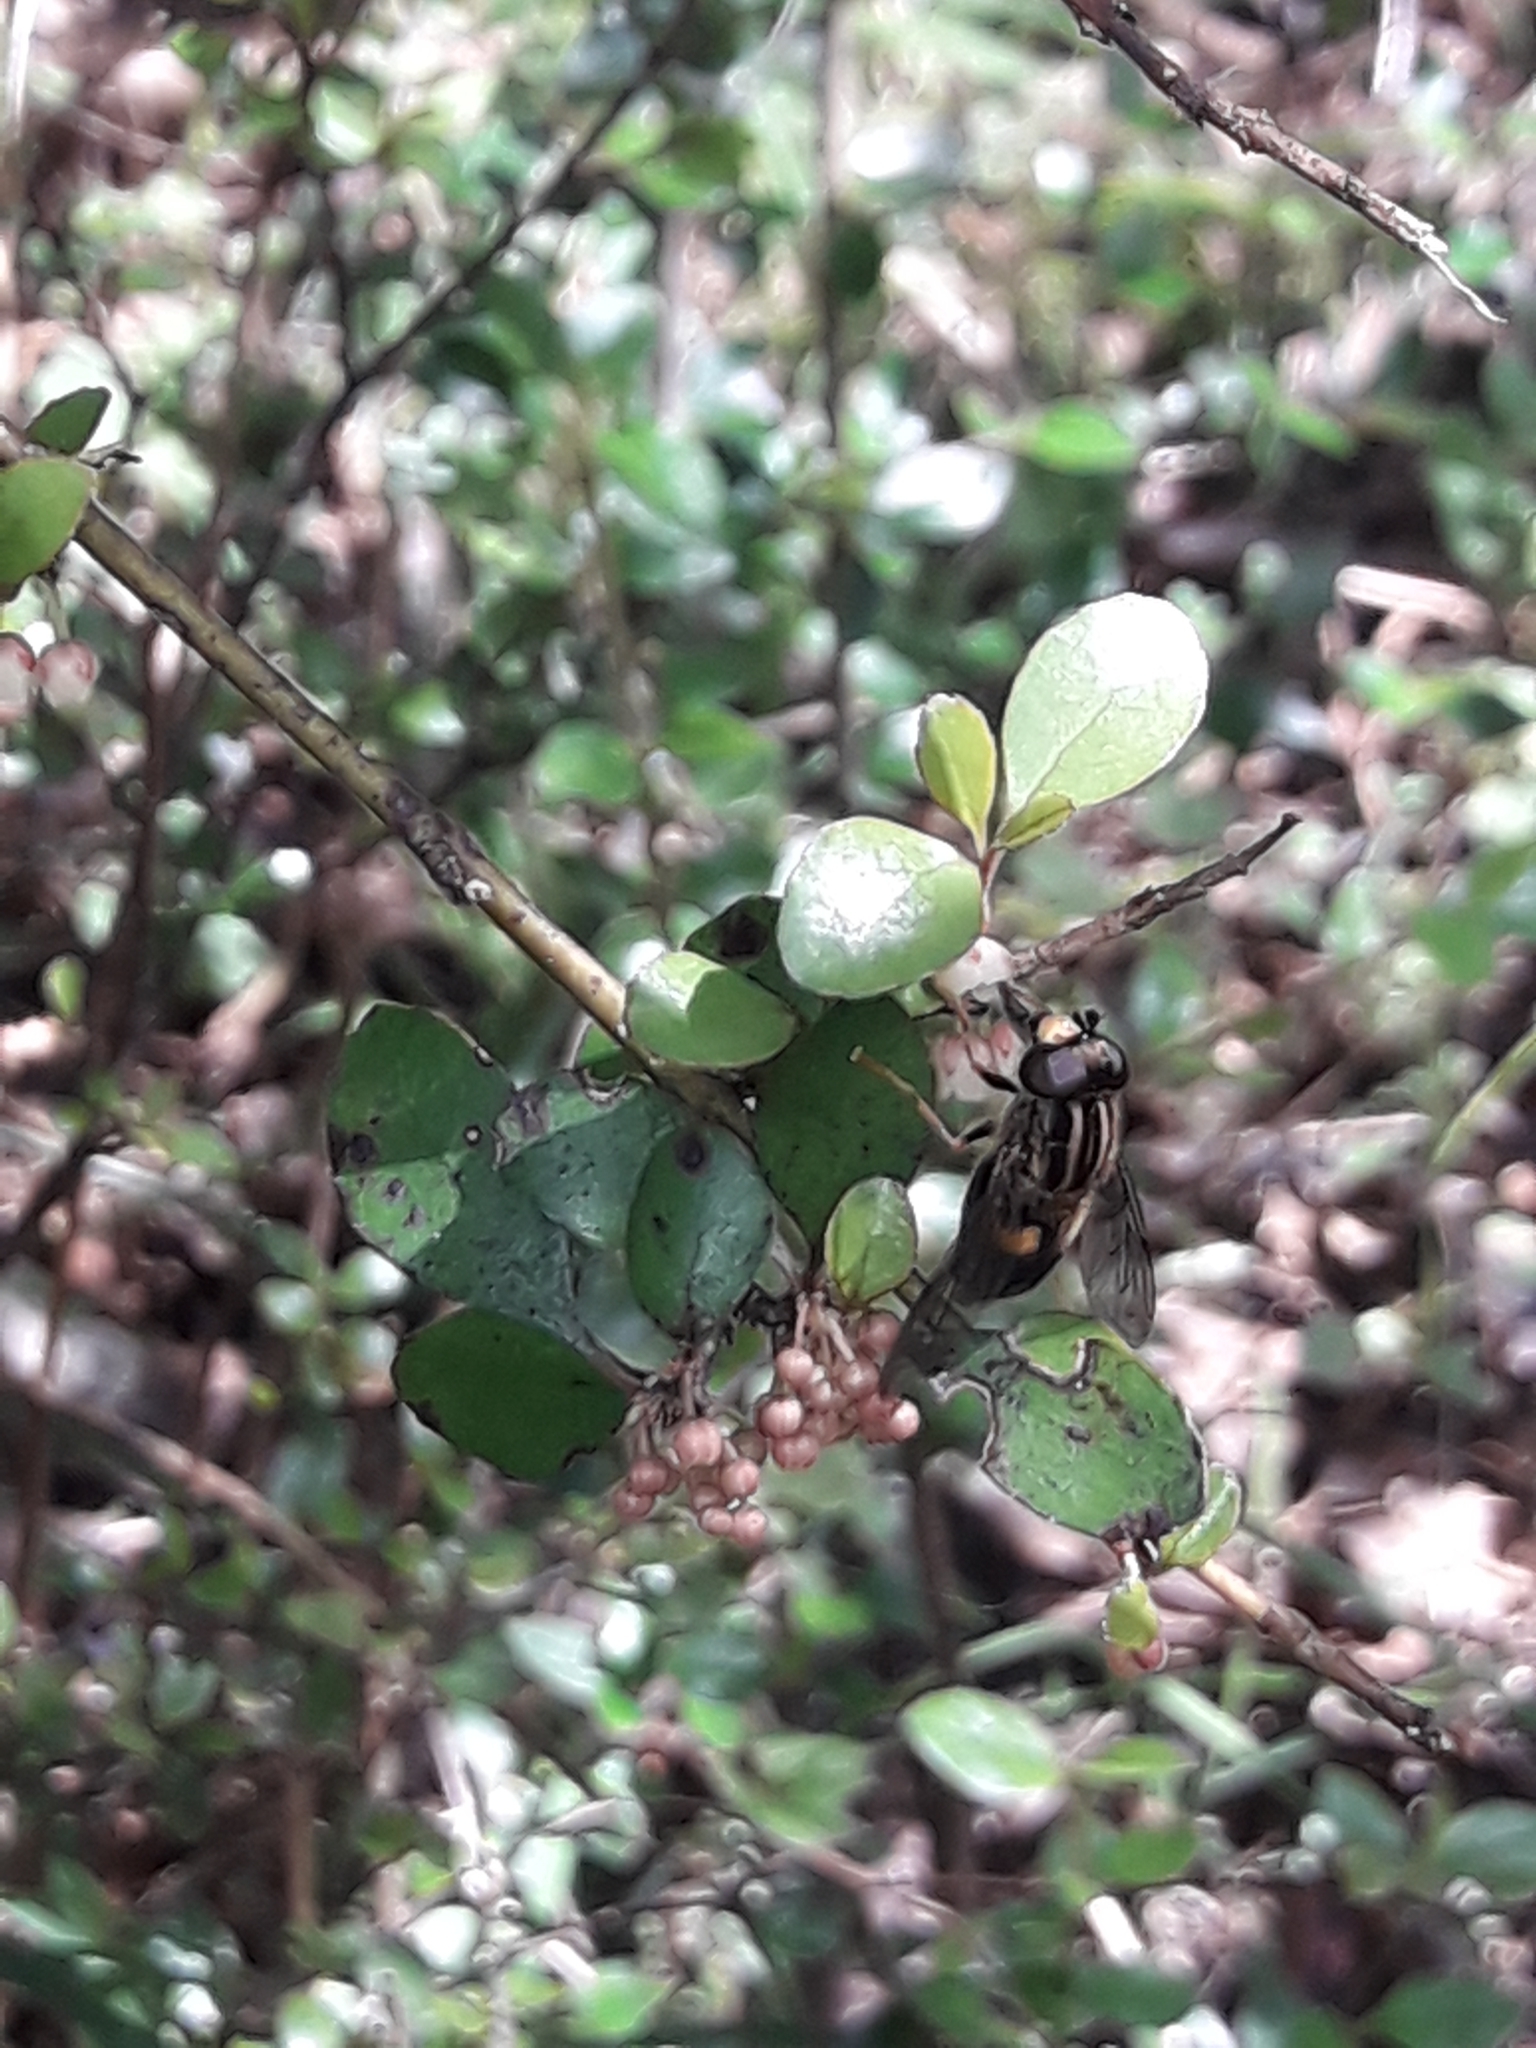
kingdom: Animalia
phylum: Arthropoda
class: Insecta
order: Diptera
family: Syrphidae
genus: Helophilus
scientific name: Helophilus antipodus
